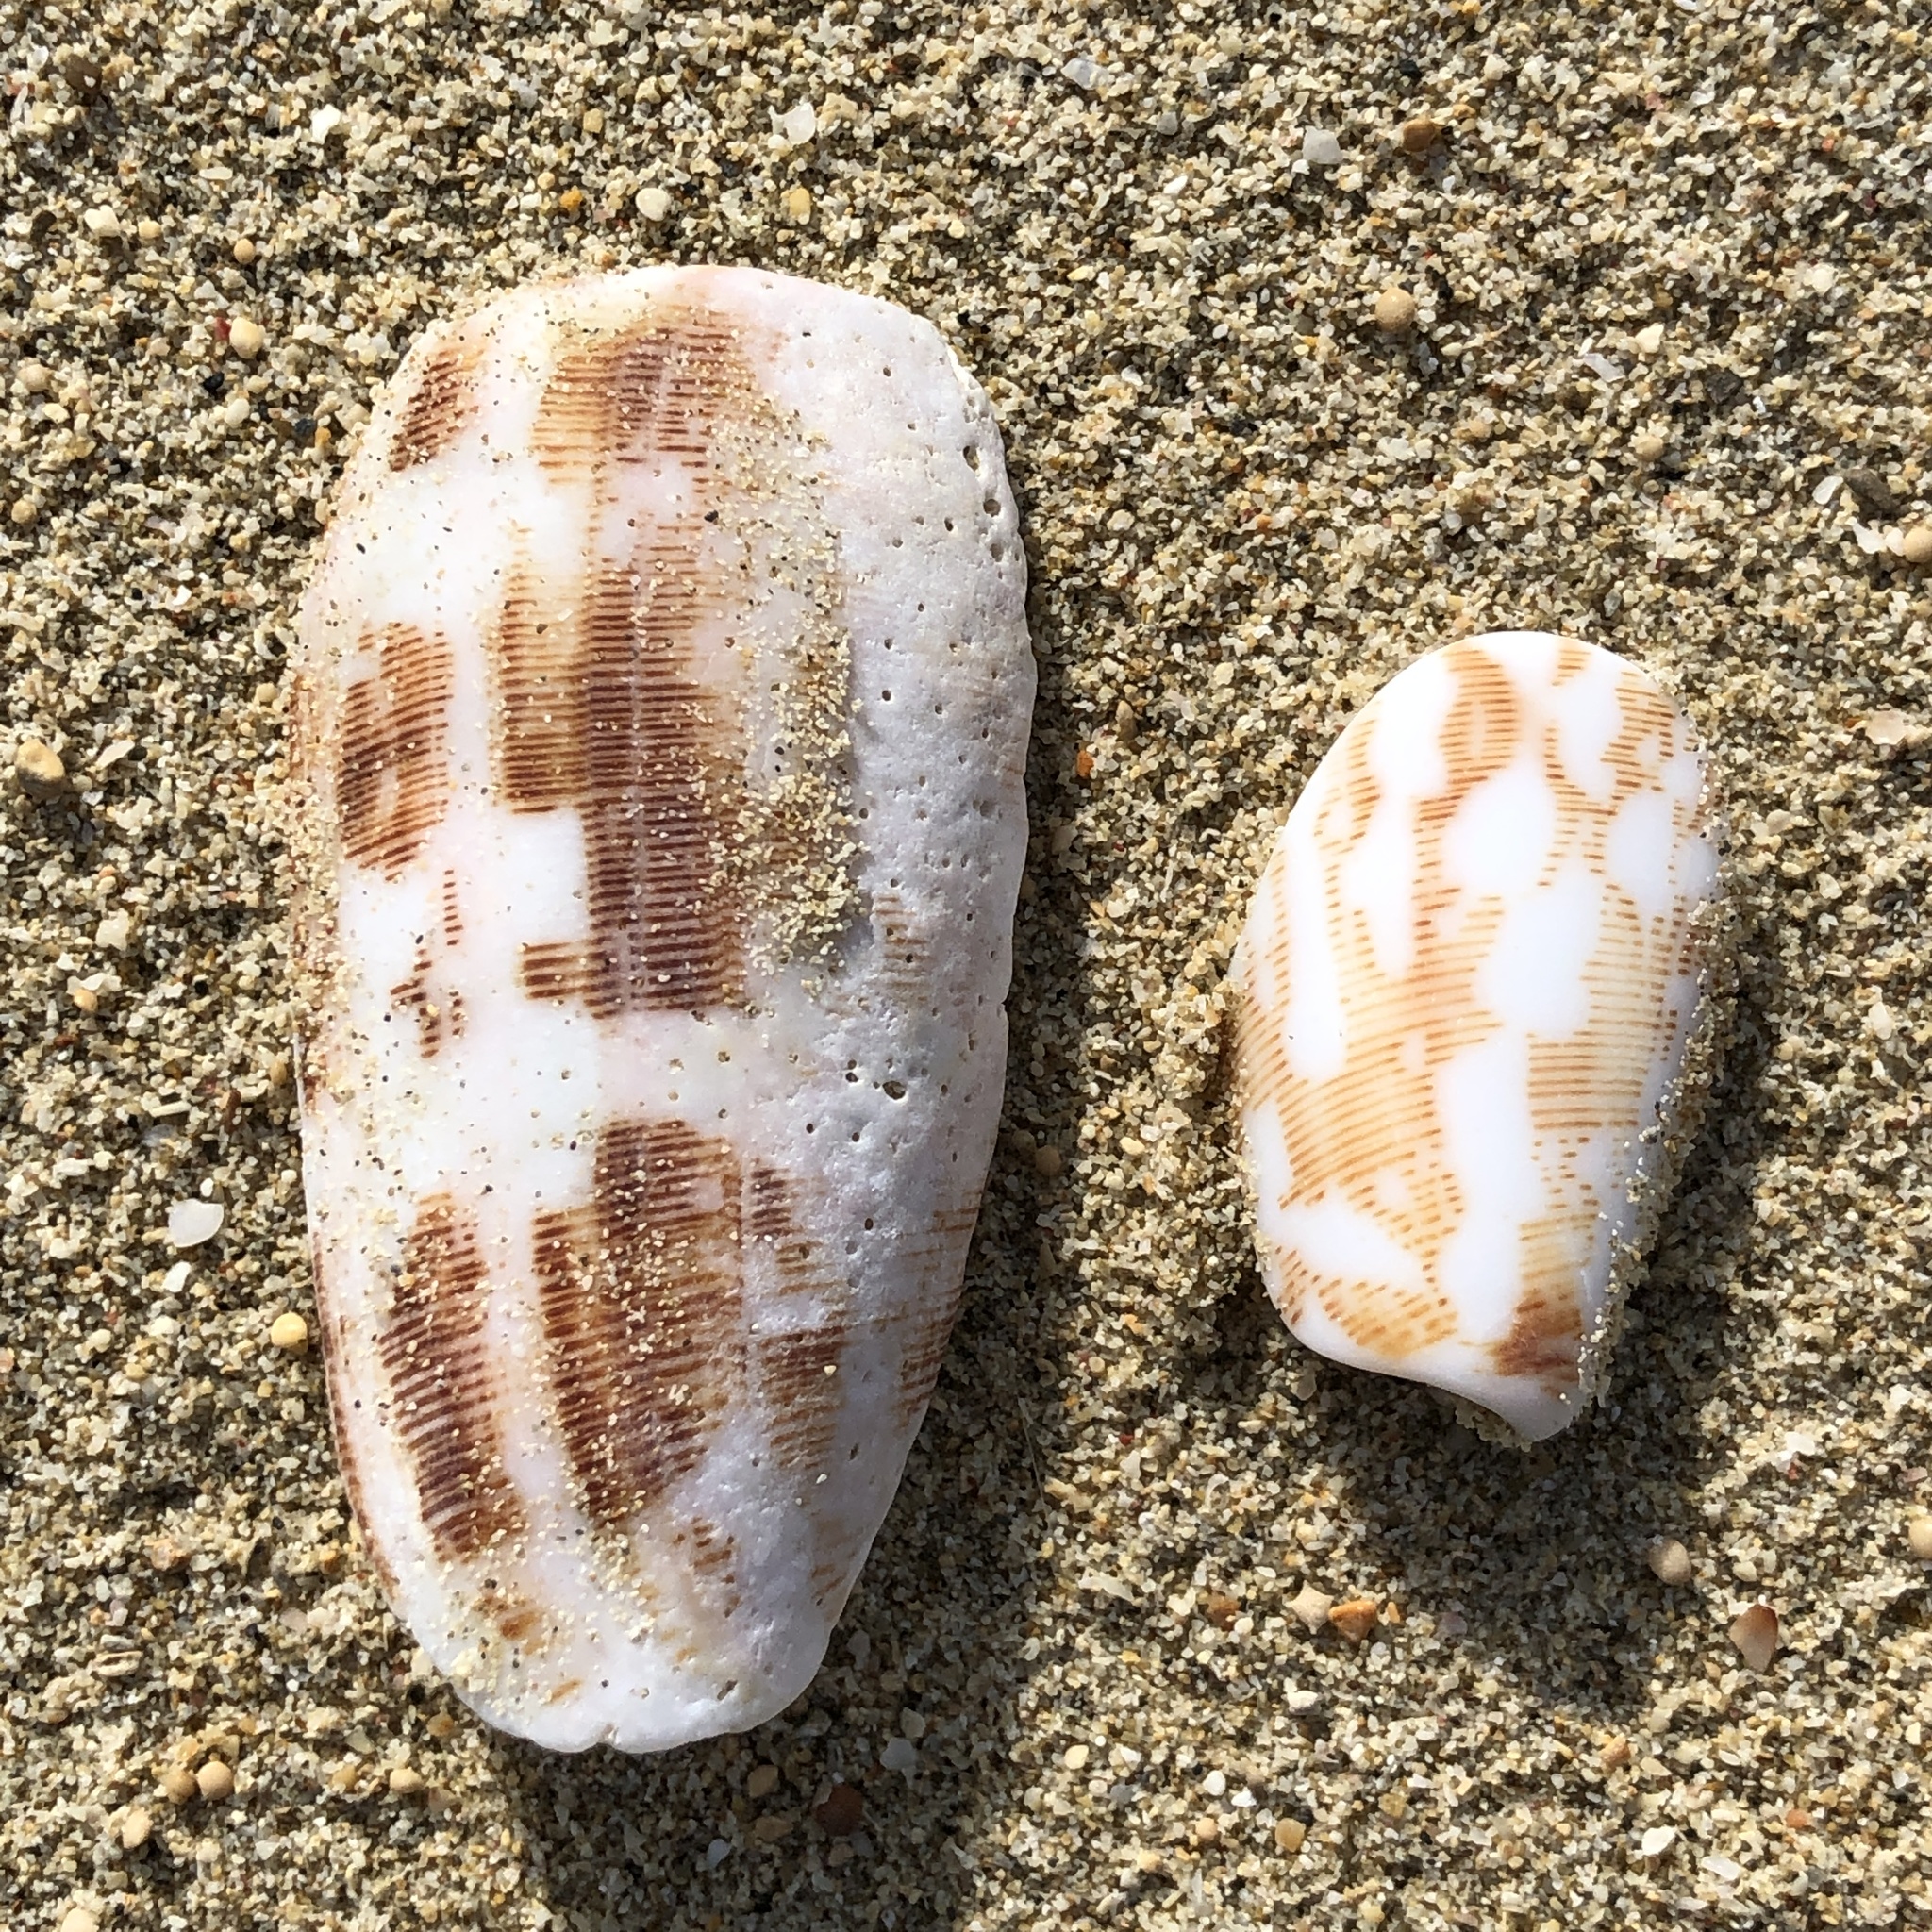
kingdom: Animalia
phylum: Mollusca
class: Gastropoda
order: Neogastropoda
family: Conidae
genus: Conus
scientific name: Conus striatus
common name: Striated cone
